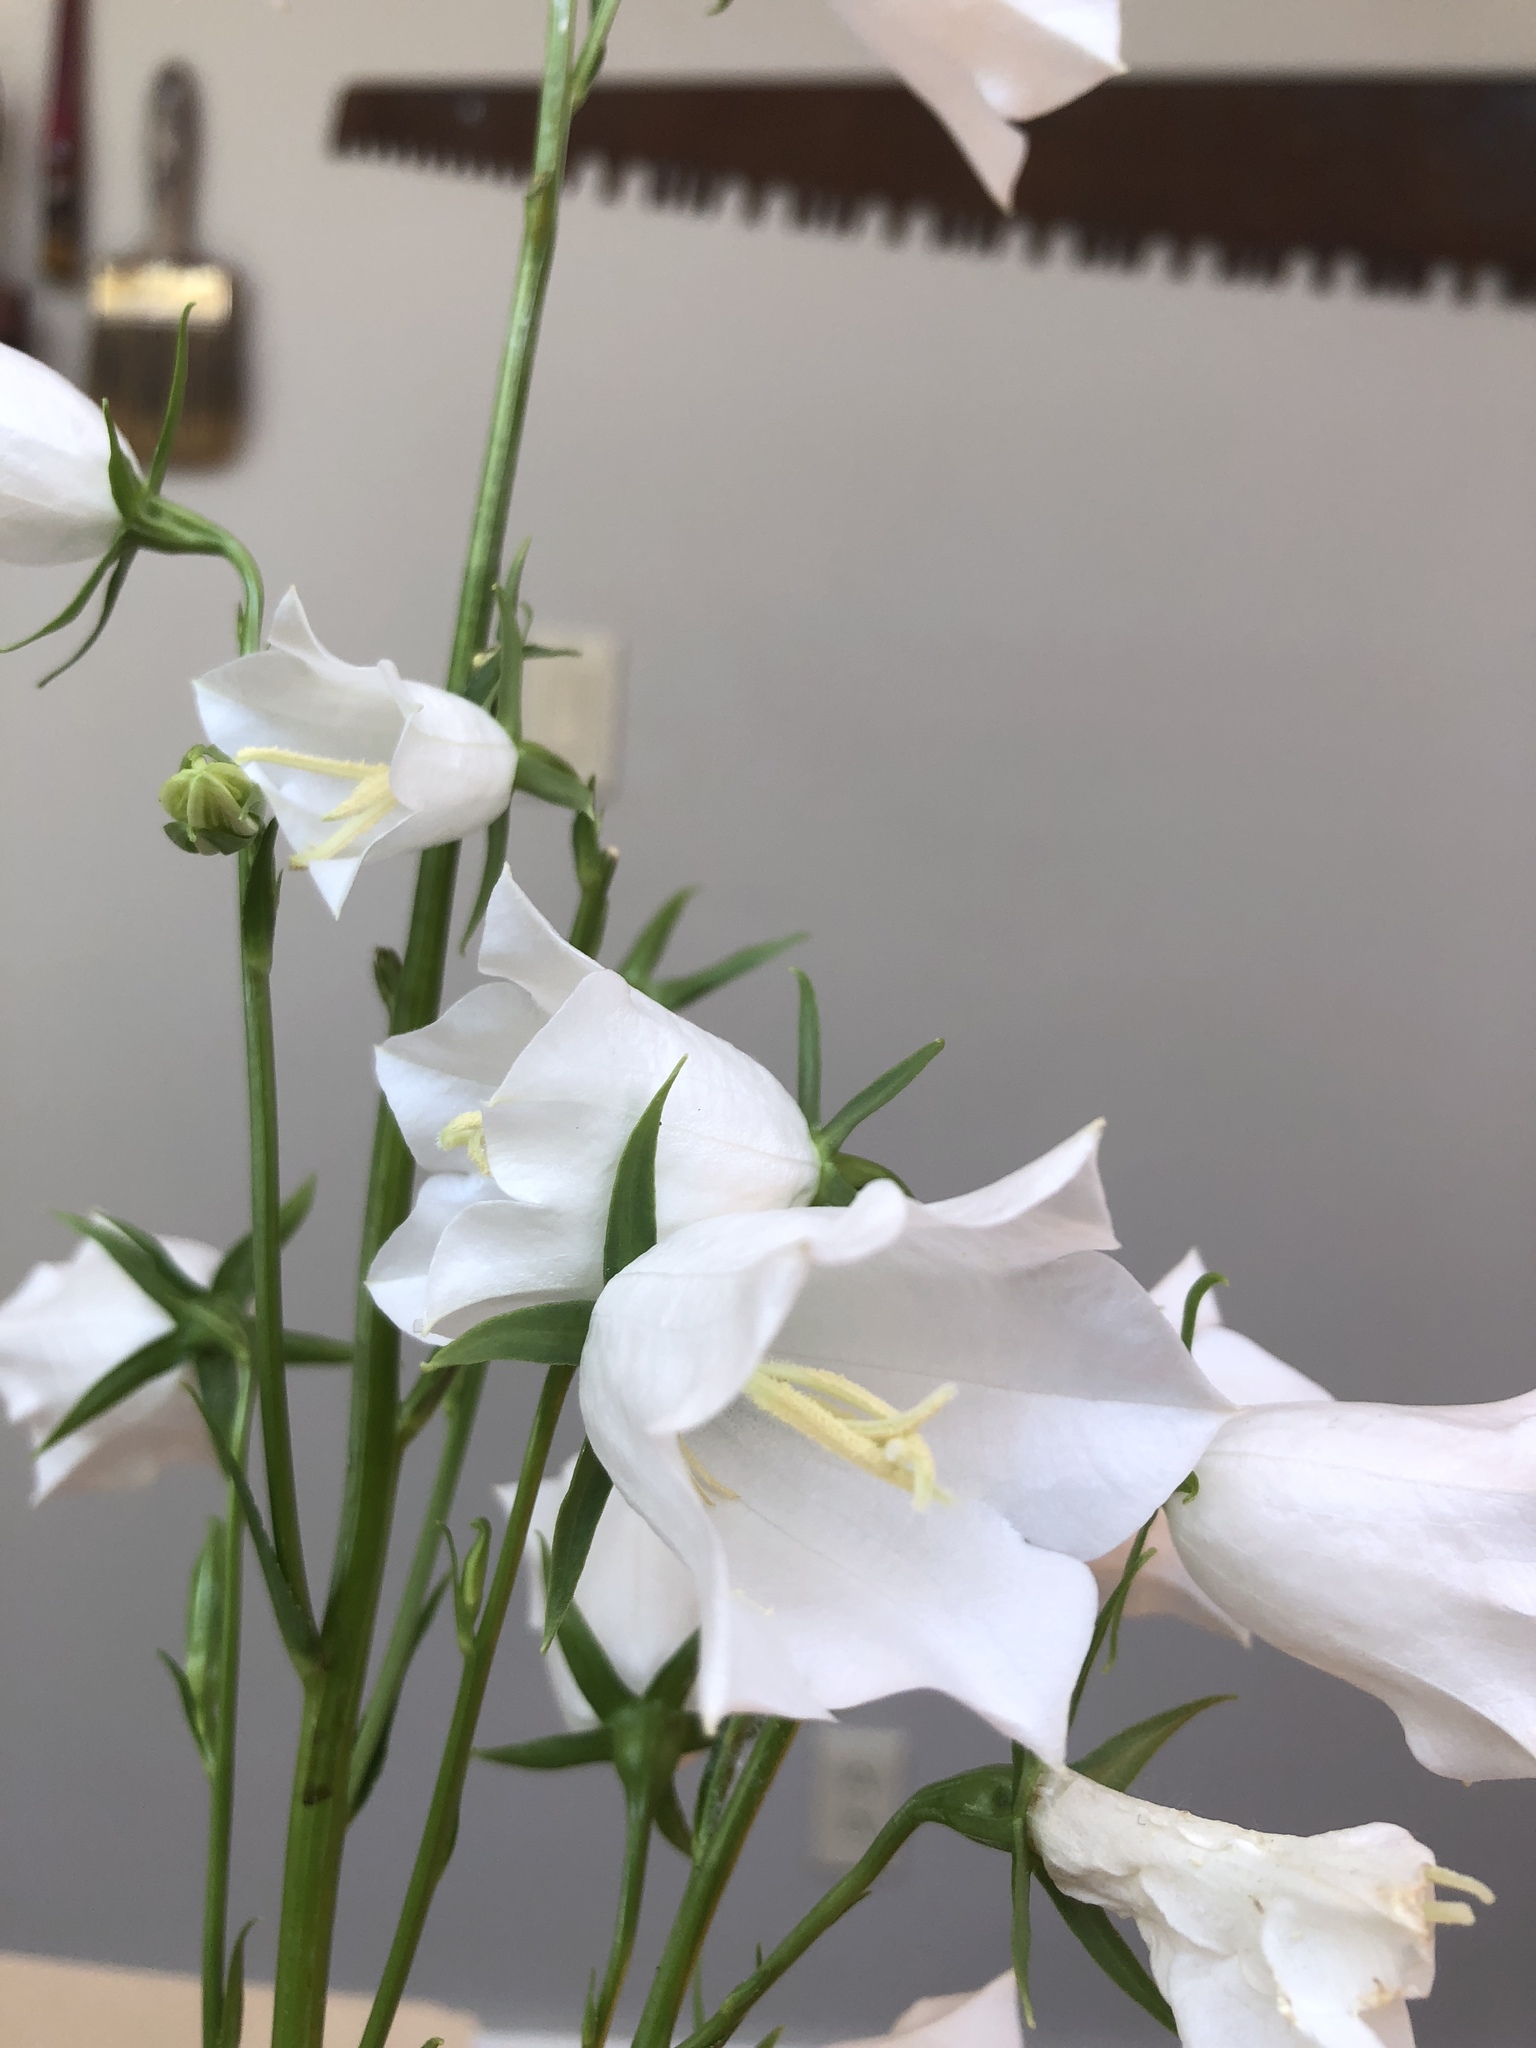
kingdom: Plantae
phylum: Tracheophyta
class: Magnoliopsida
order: Asterales
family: Campanulaceae
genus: Campanula
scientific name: Campanula persicifolia
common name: Peach-leaved bellflower
